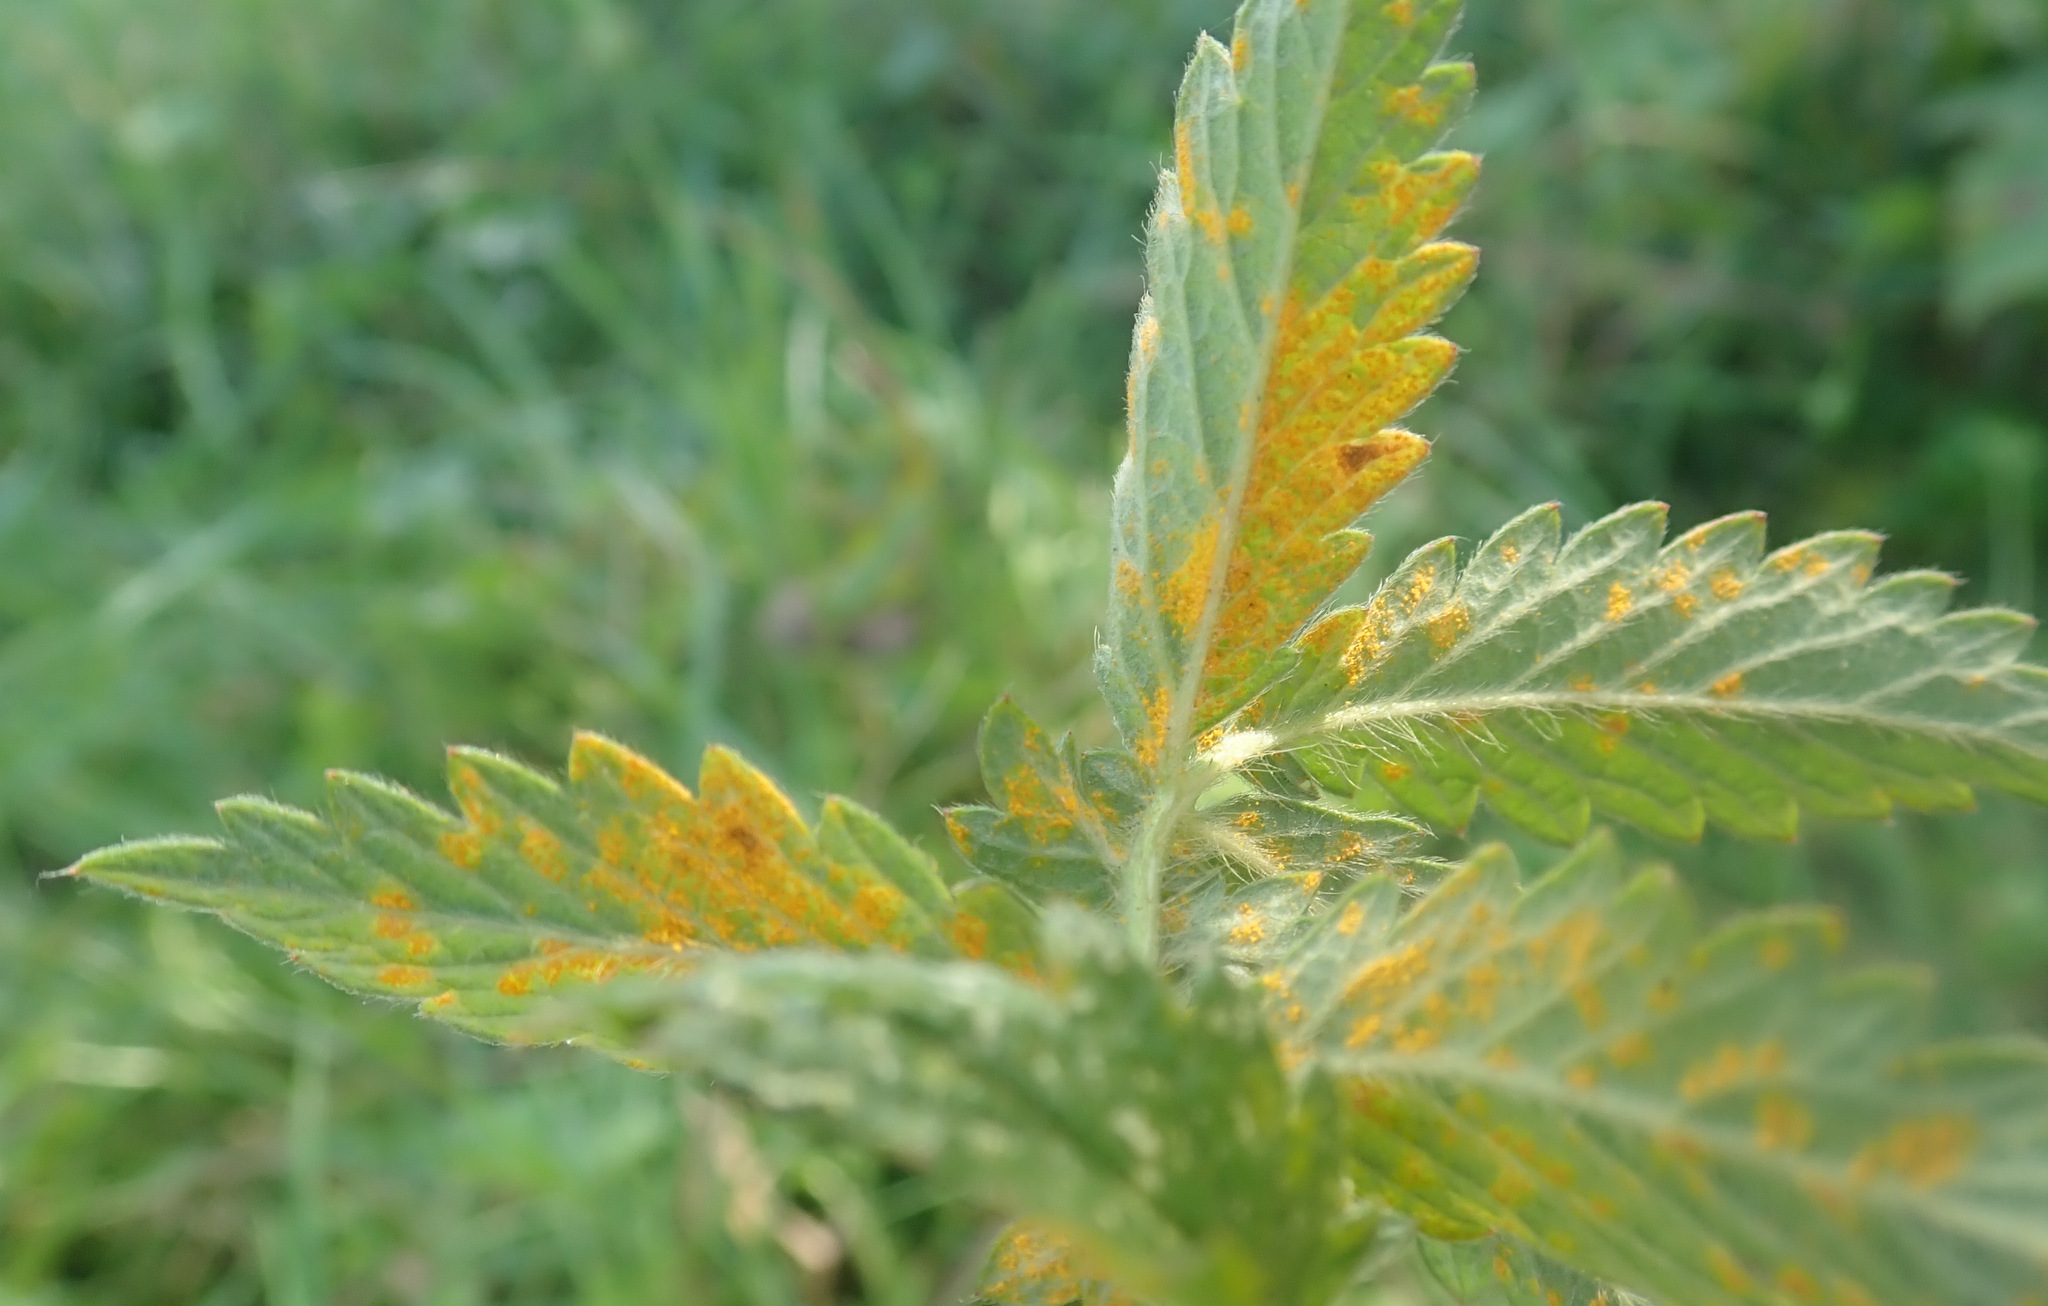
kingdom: Fungi
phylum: Basidiomycota
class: Pucciniomycetes
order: Pucciniales
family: Cronartiaceae
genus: Quasipucciniastrum
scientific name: Quasipucciniastrum ochraceum
